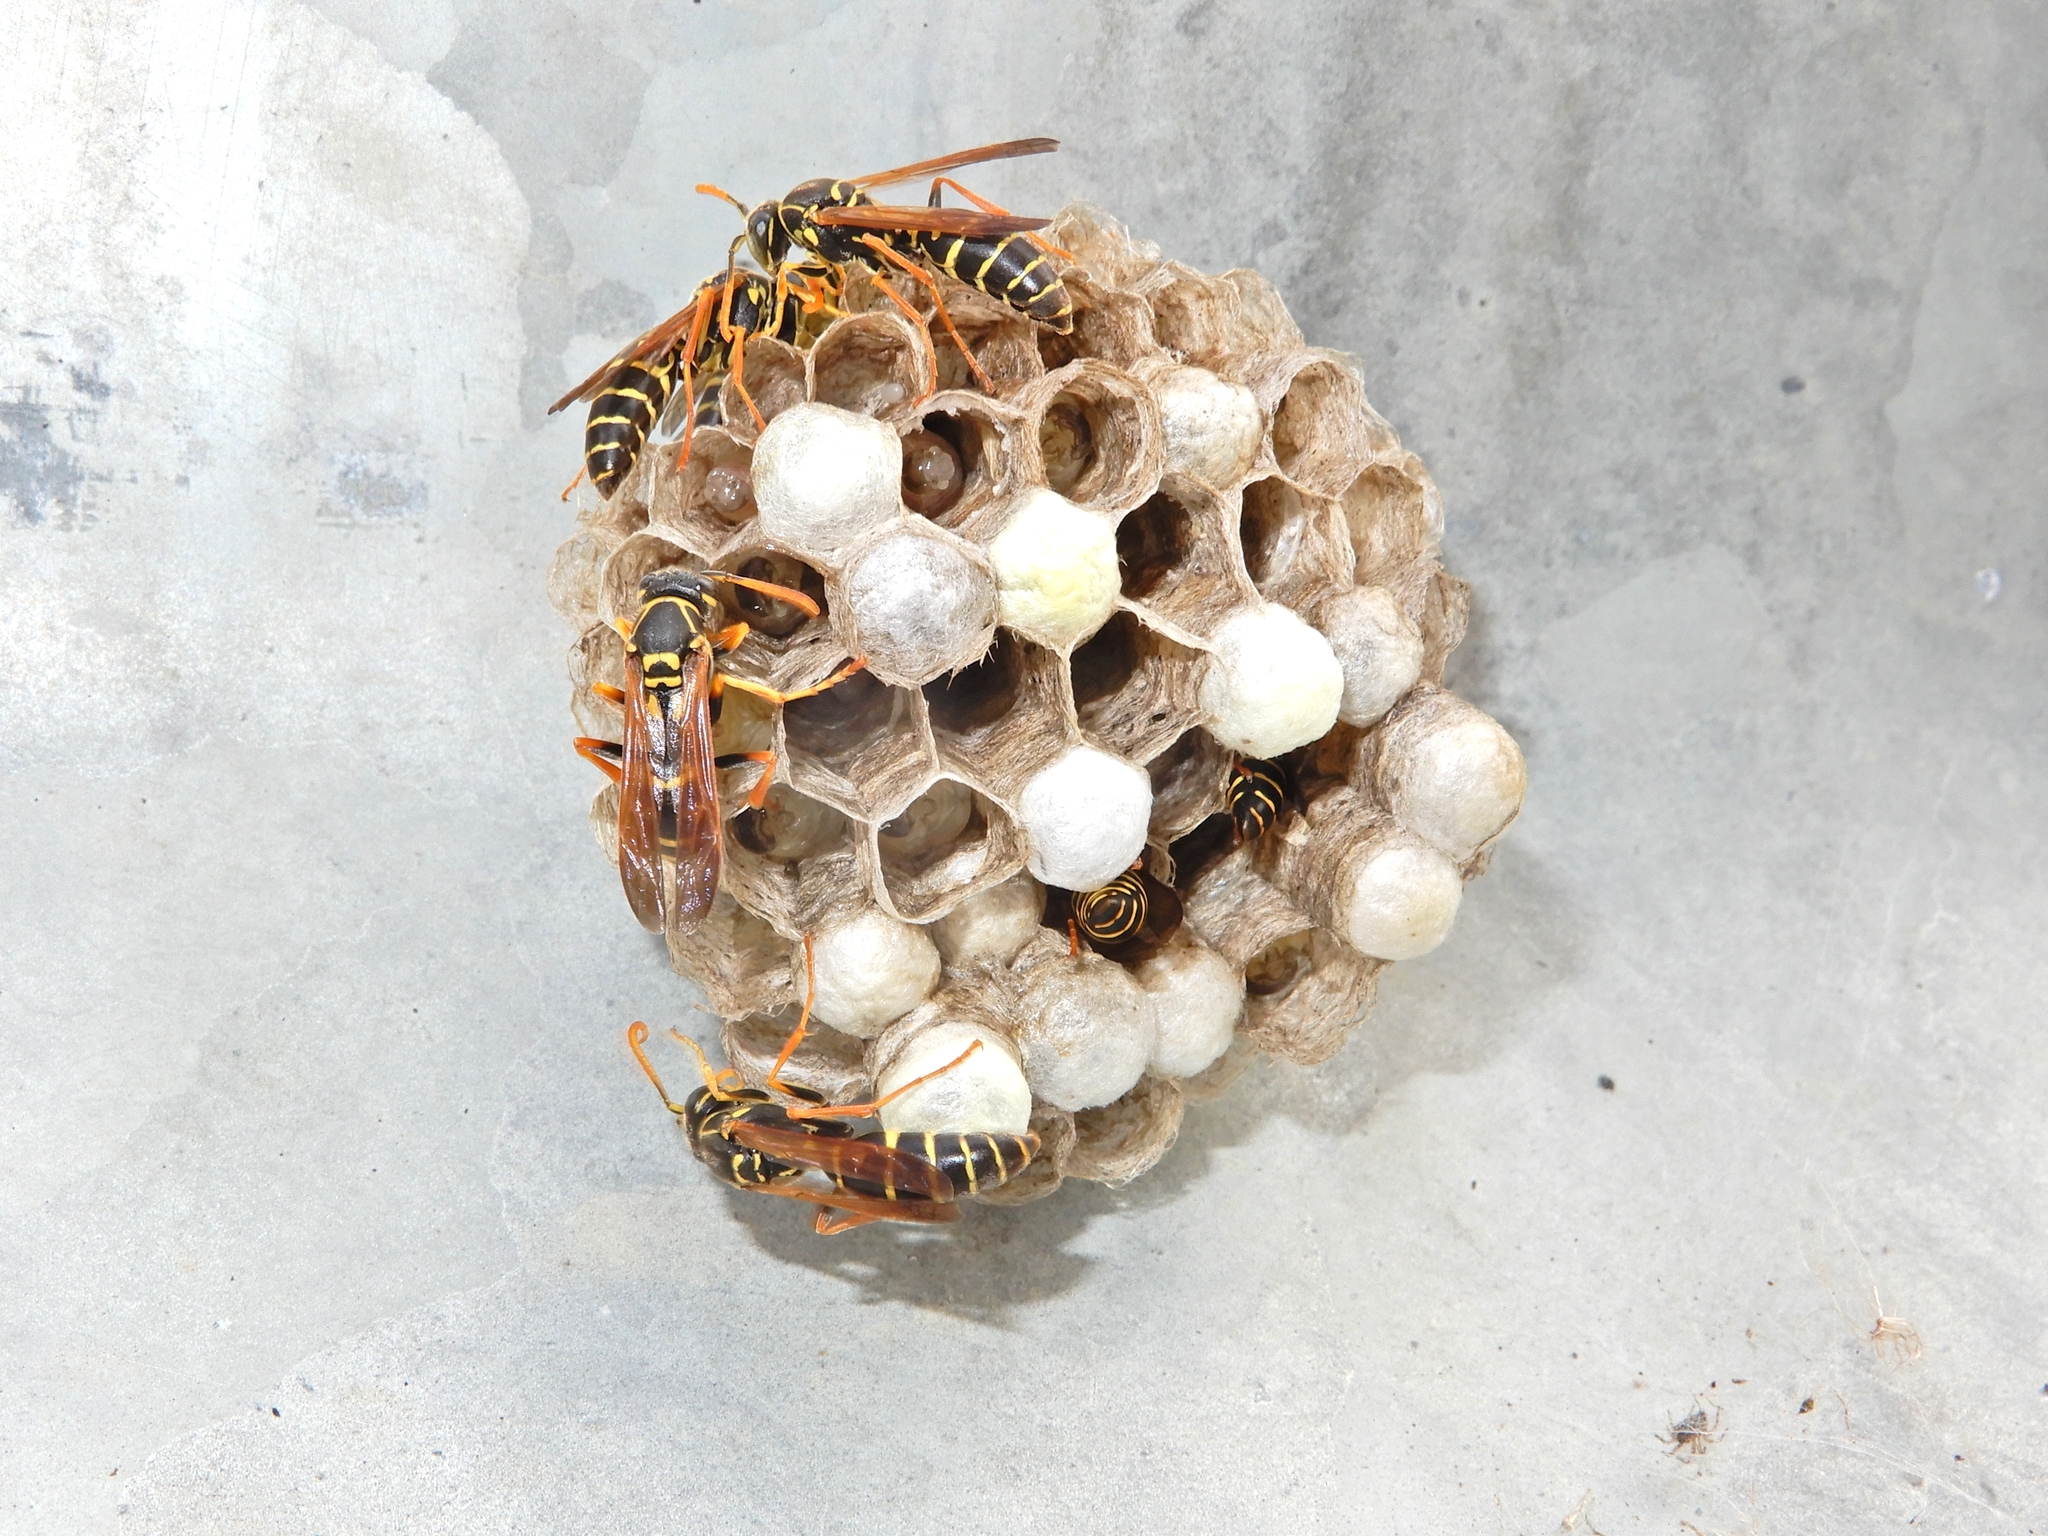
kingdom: Animalia
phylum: Arthropoda
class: Insecta
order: Hymenoptera
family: Eumenidae
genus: Polistes
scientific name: Polistes chinensis
